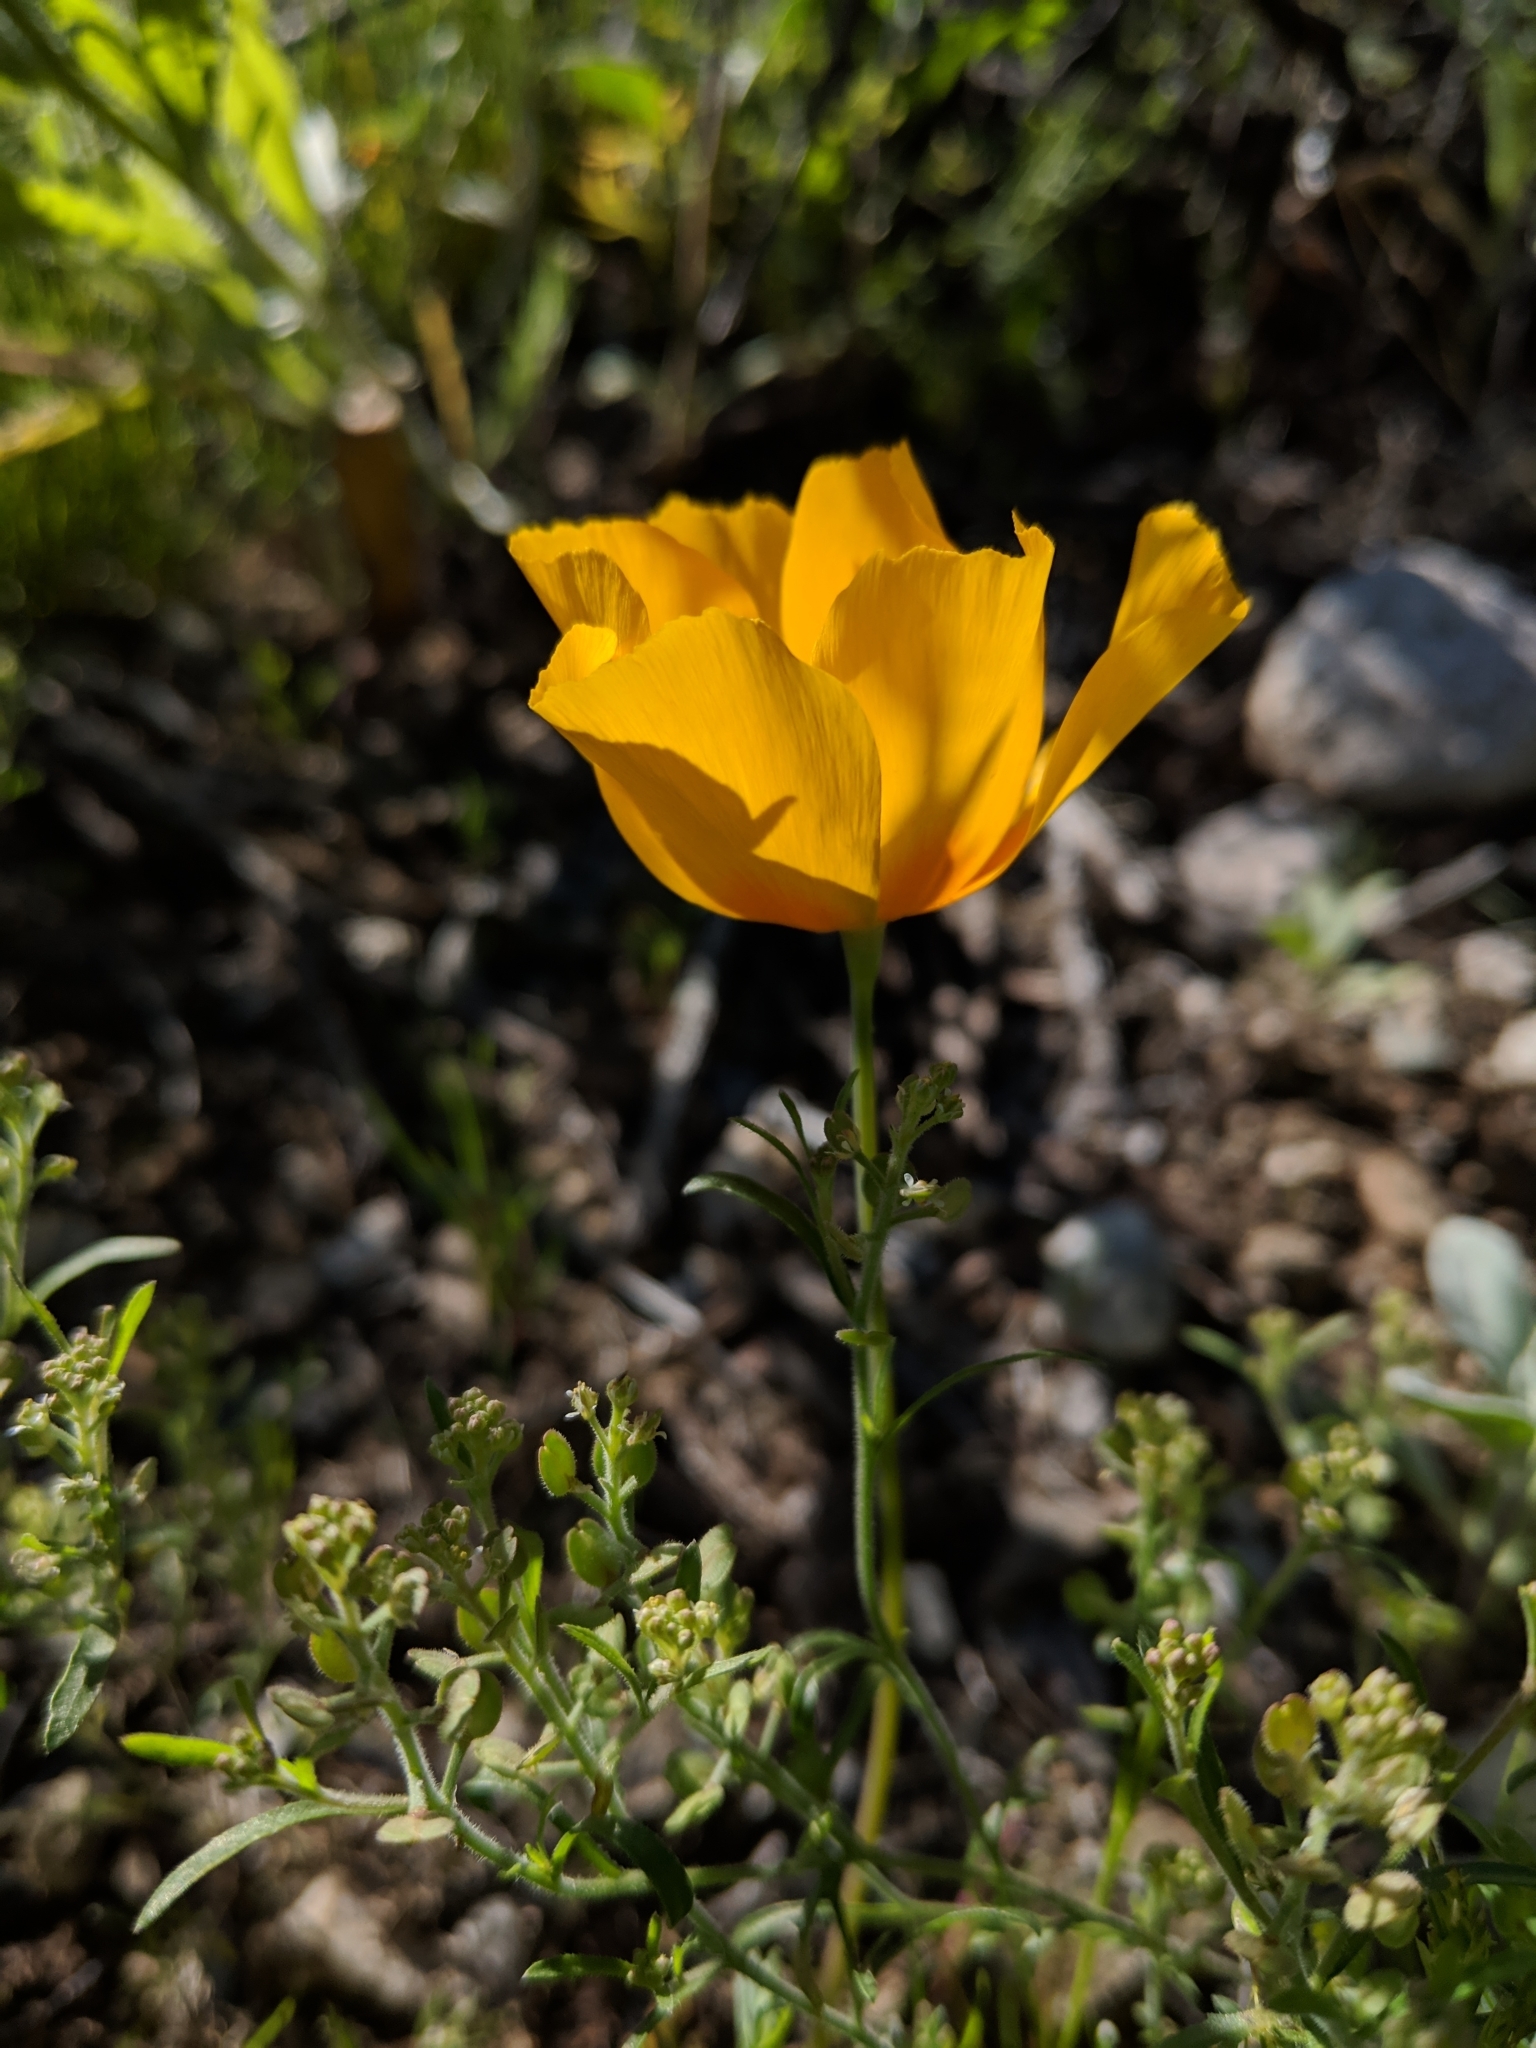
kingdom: Plantae
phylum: Tracheophyta
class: Magnoliopsida
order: Ranunculales
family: Papaveraceae
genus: Eschscholzia
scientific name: Eschscholzia californica
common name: California poppy
